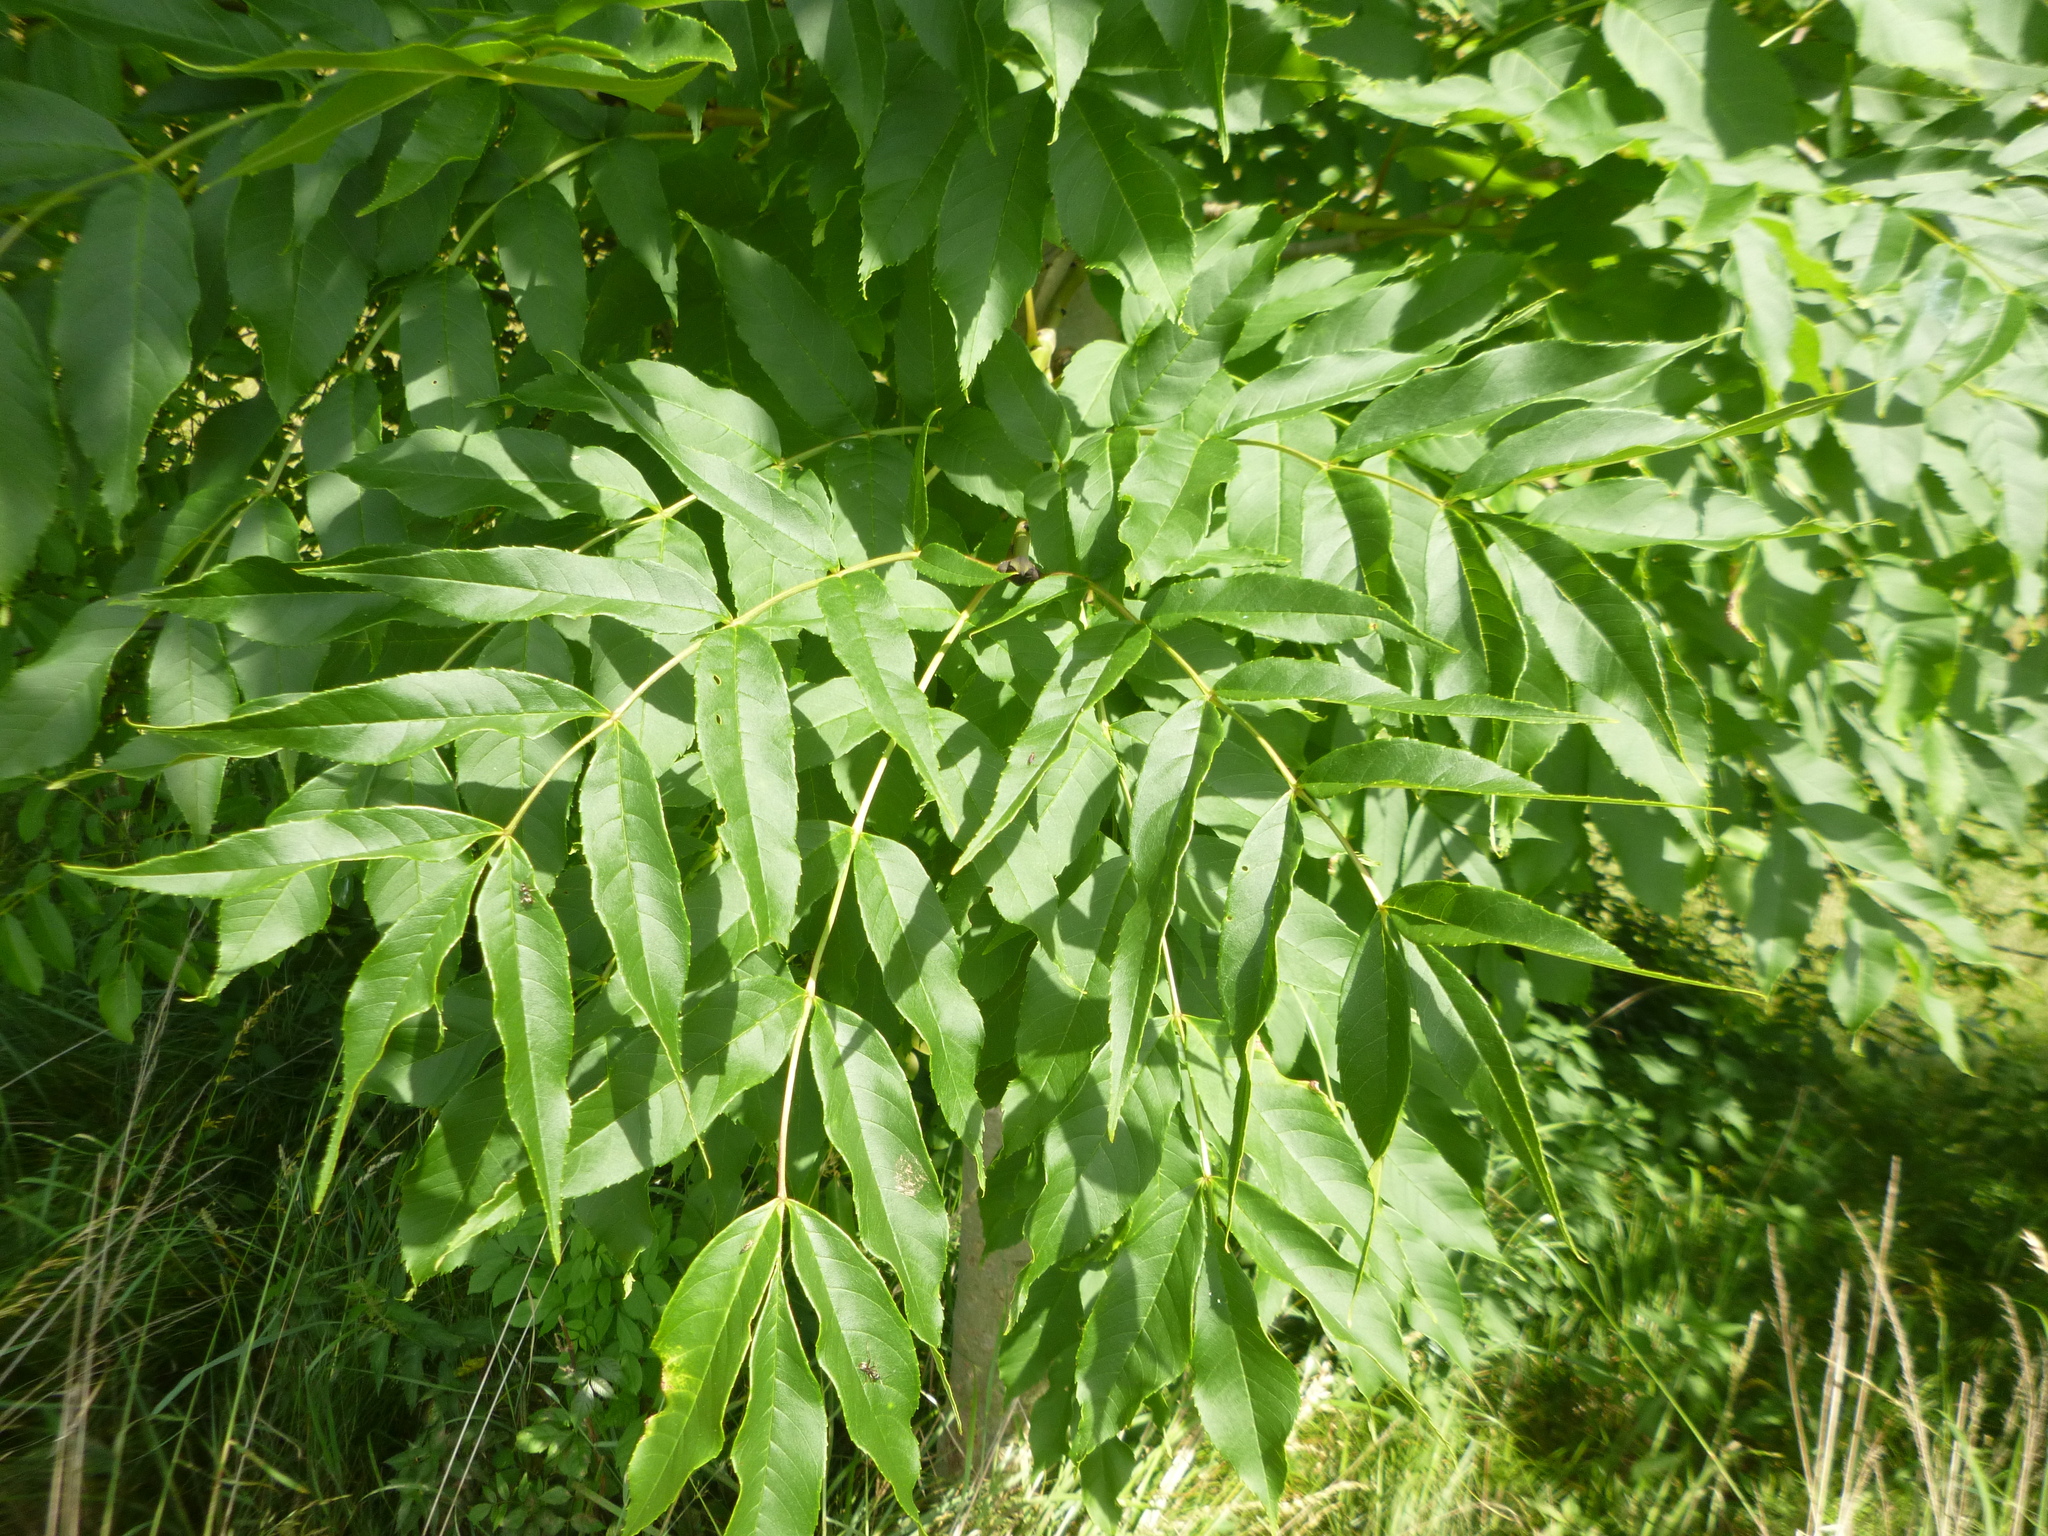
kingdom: Plantae
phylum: Tracheophyta
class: Magnoliopsida
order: Lamiales
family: Oleaceae
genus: Fraxinus
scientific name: Fraxinus excelsior
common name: European ash
